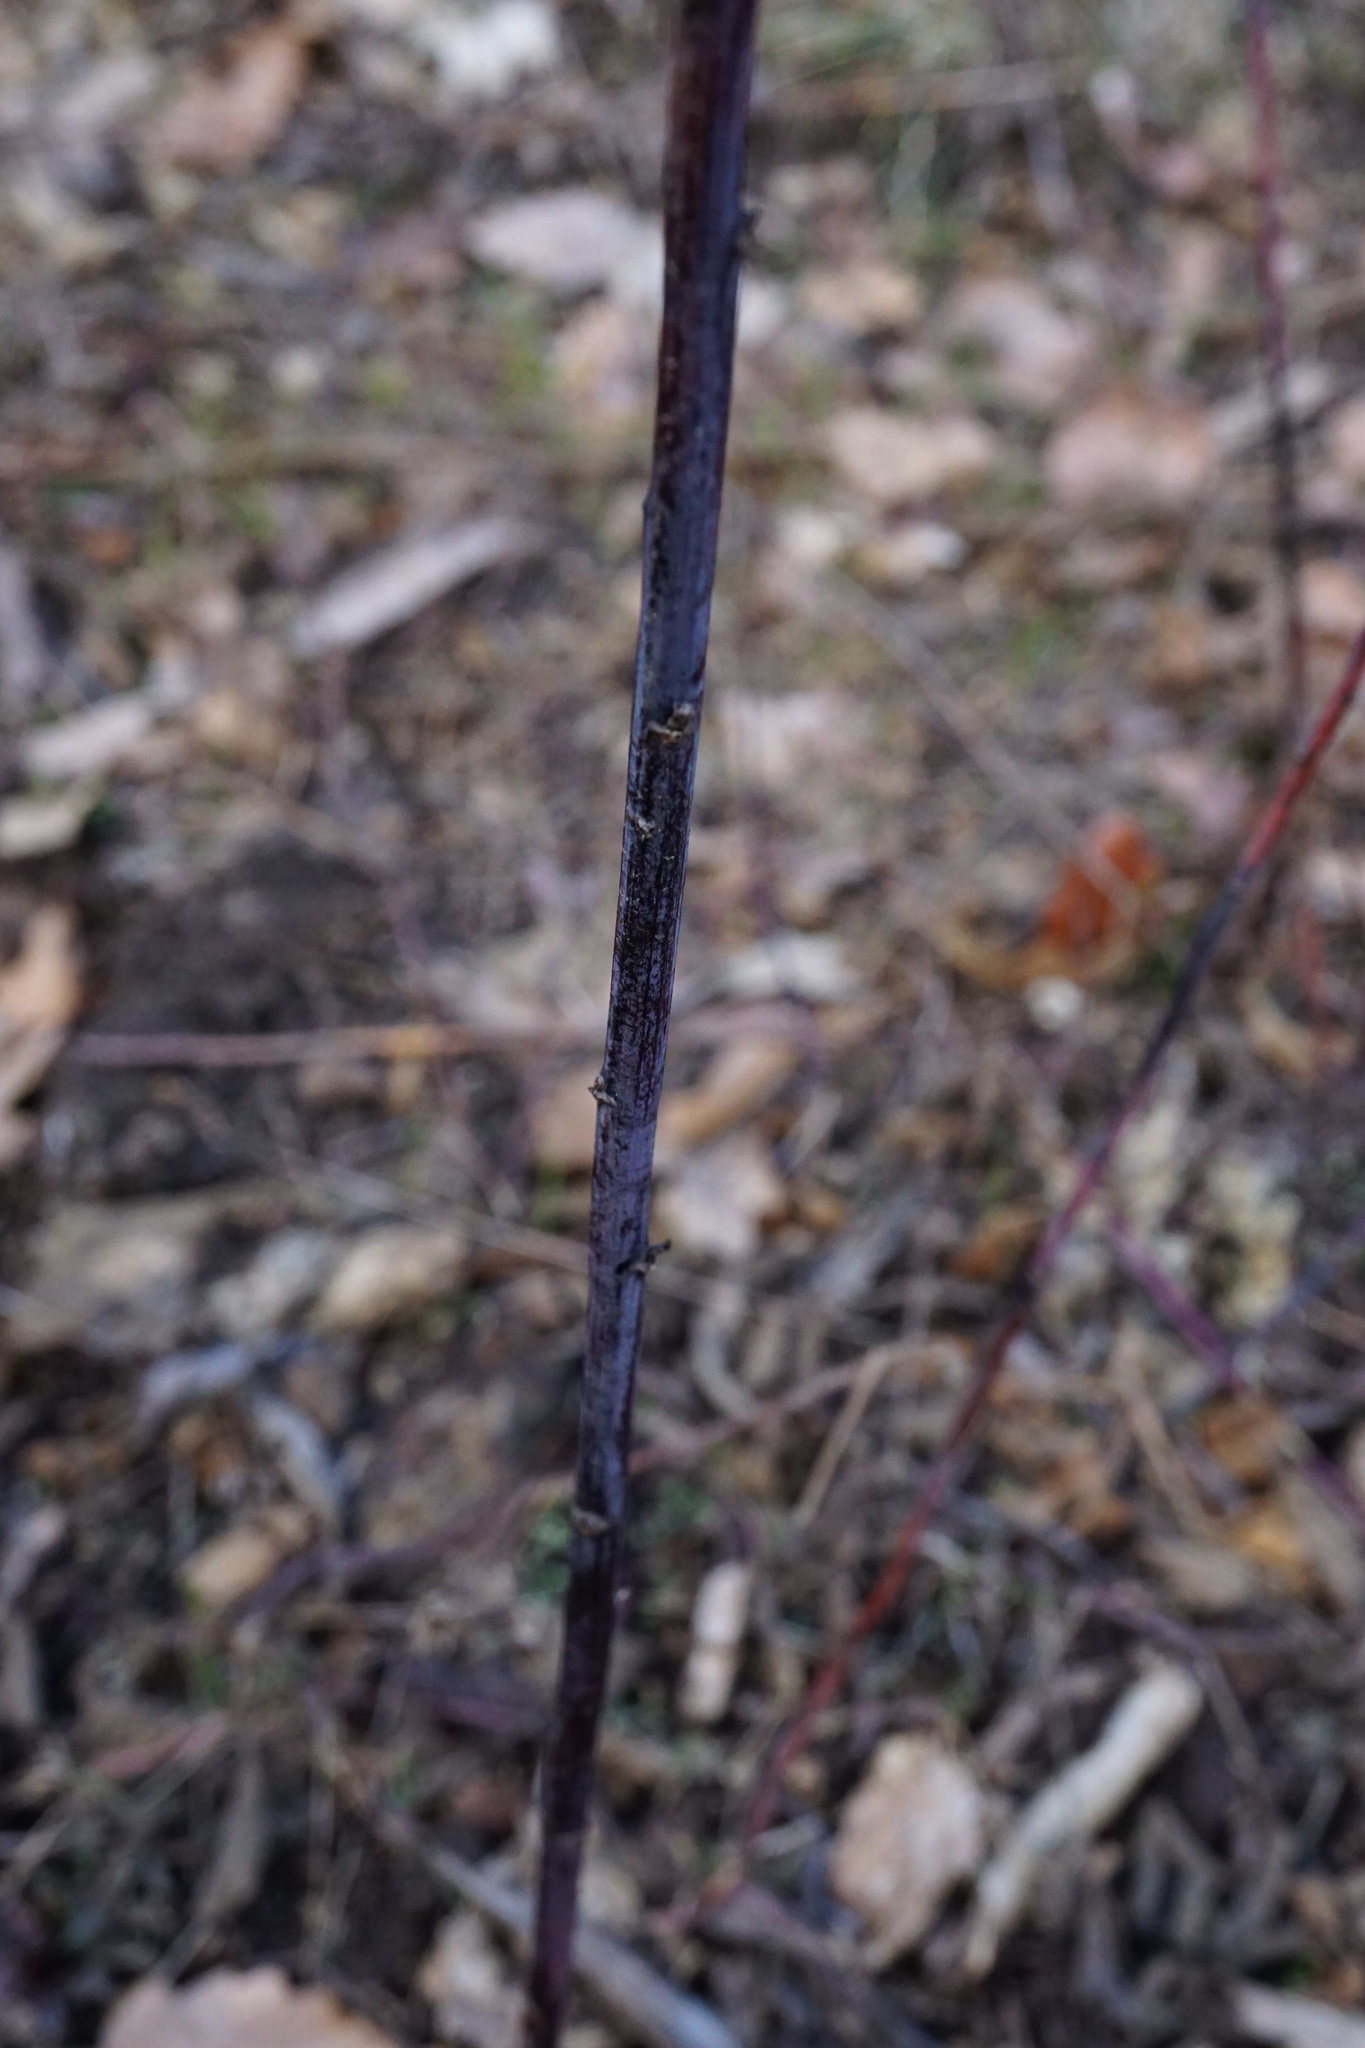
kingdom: Plantae
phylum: Tracheophyta
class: Magnoliopsida
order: Asterales
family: Asteraceae
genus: Solidago
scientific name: Solidago gigantea
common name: Giant goldenrod
